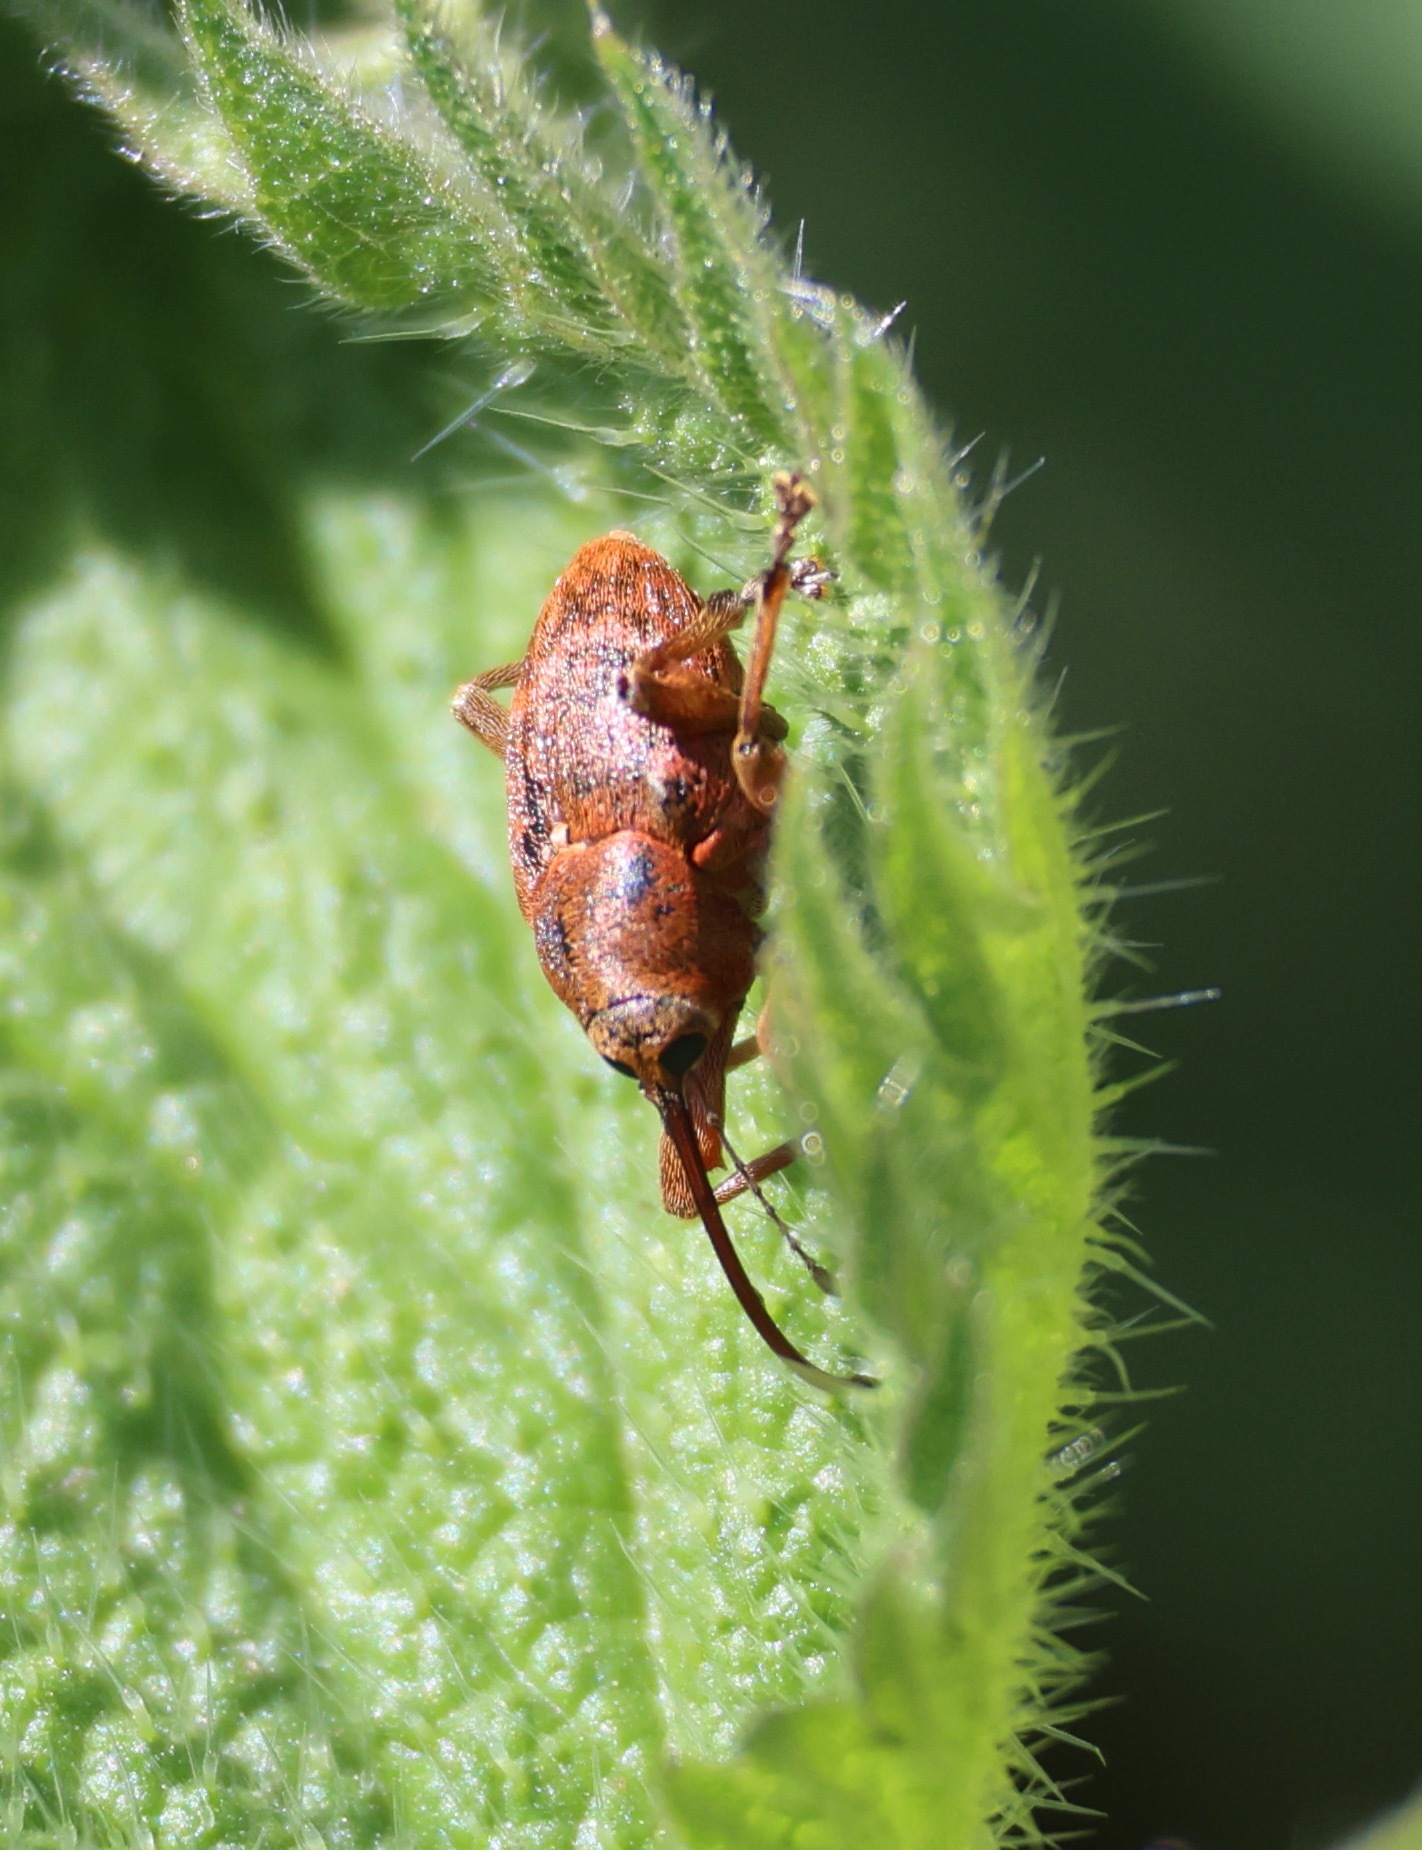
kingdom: Animalia
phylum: Arthropoda
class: Insecta
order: Coleoptera
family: Curculionidae
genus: Curculio
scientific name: Curculio glandium
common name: Acorn weevil
